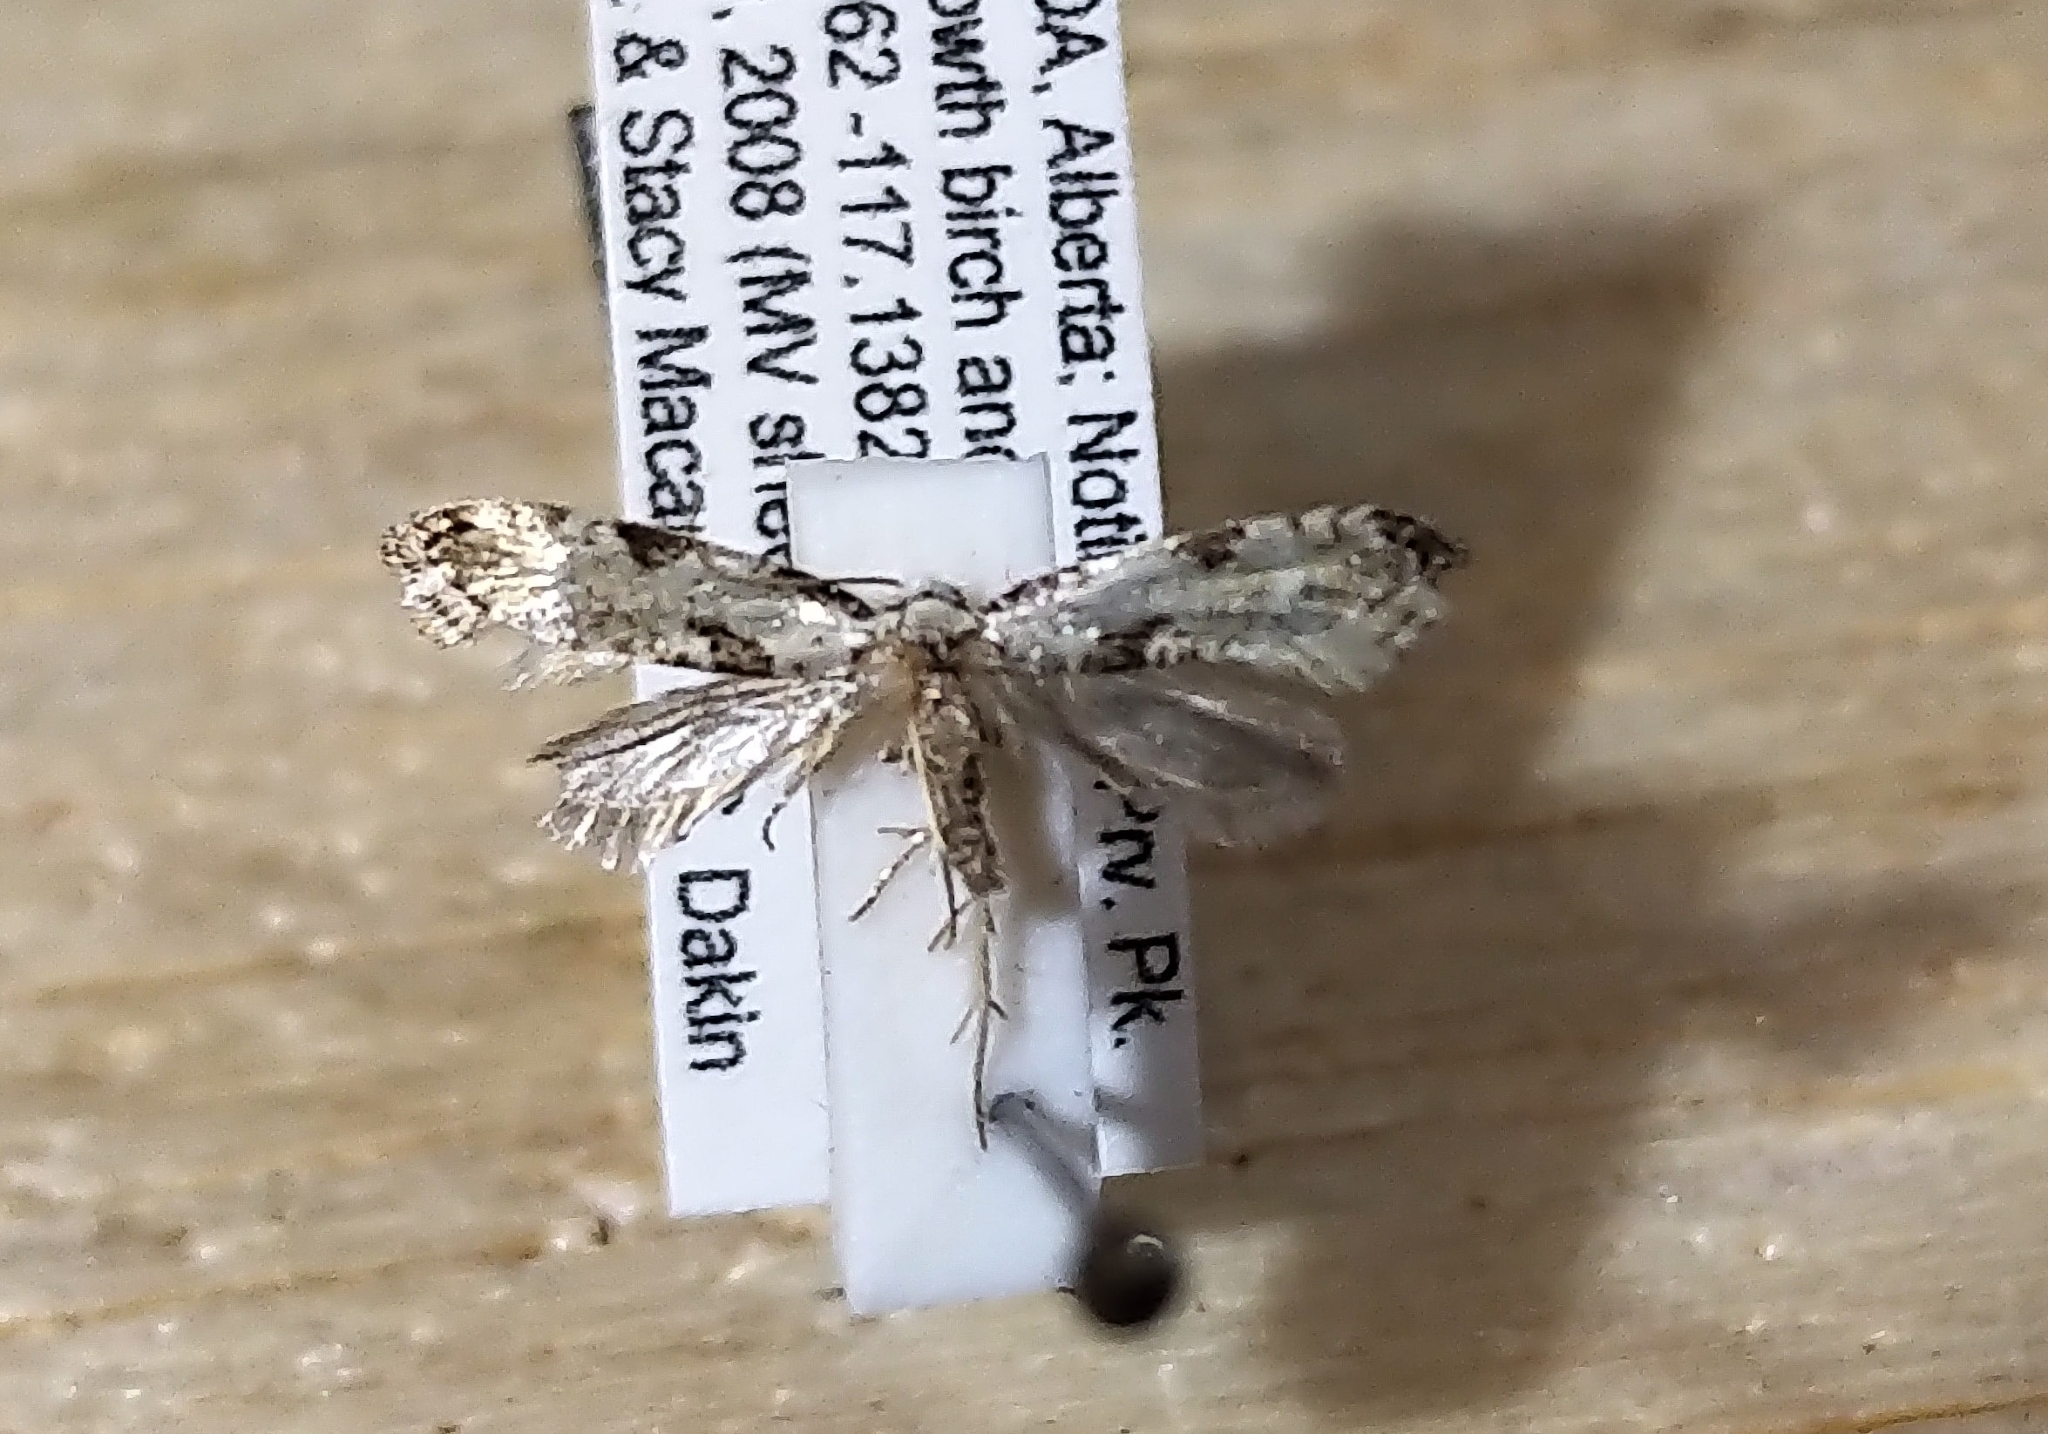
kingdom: Animalia
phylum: Arthropoda
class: Insecta
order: Lepidoptera
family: Tineidae
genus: Nemapogon
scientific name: Nemapogon tylodes
